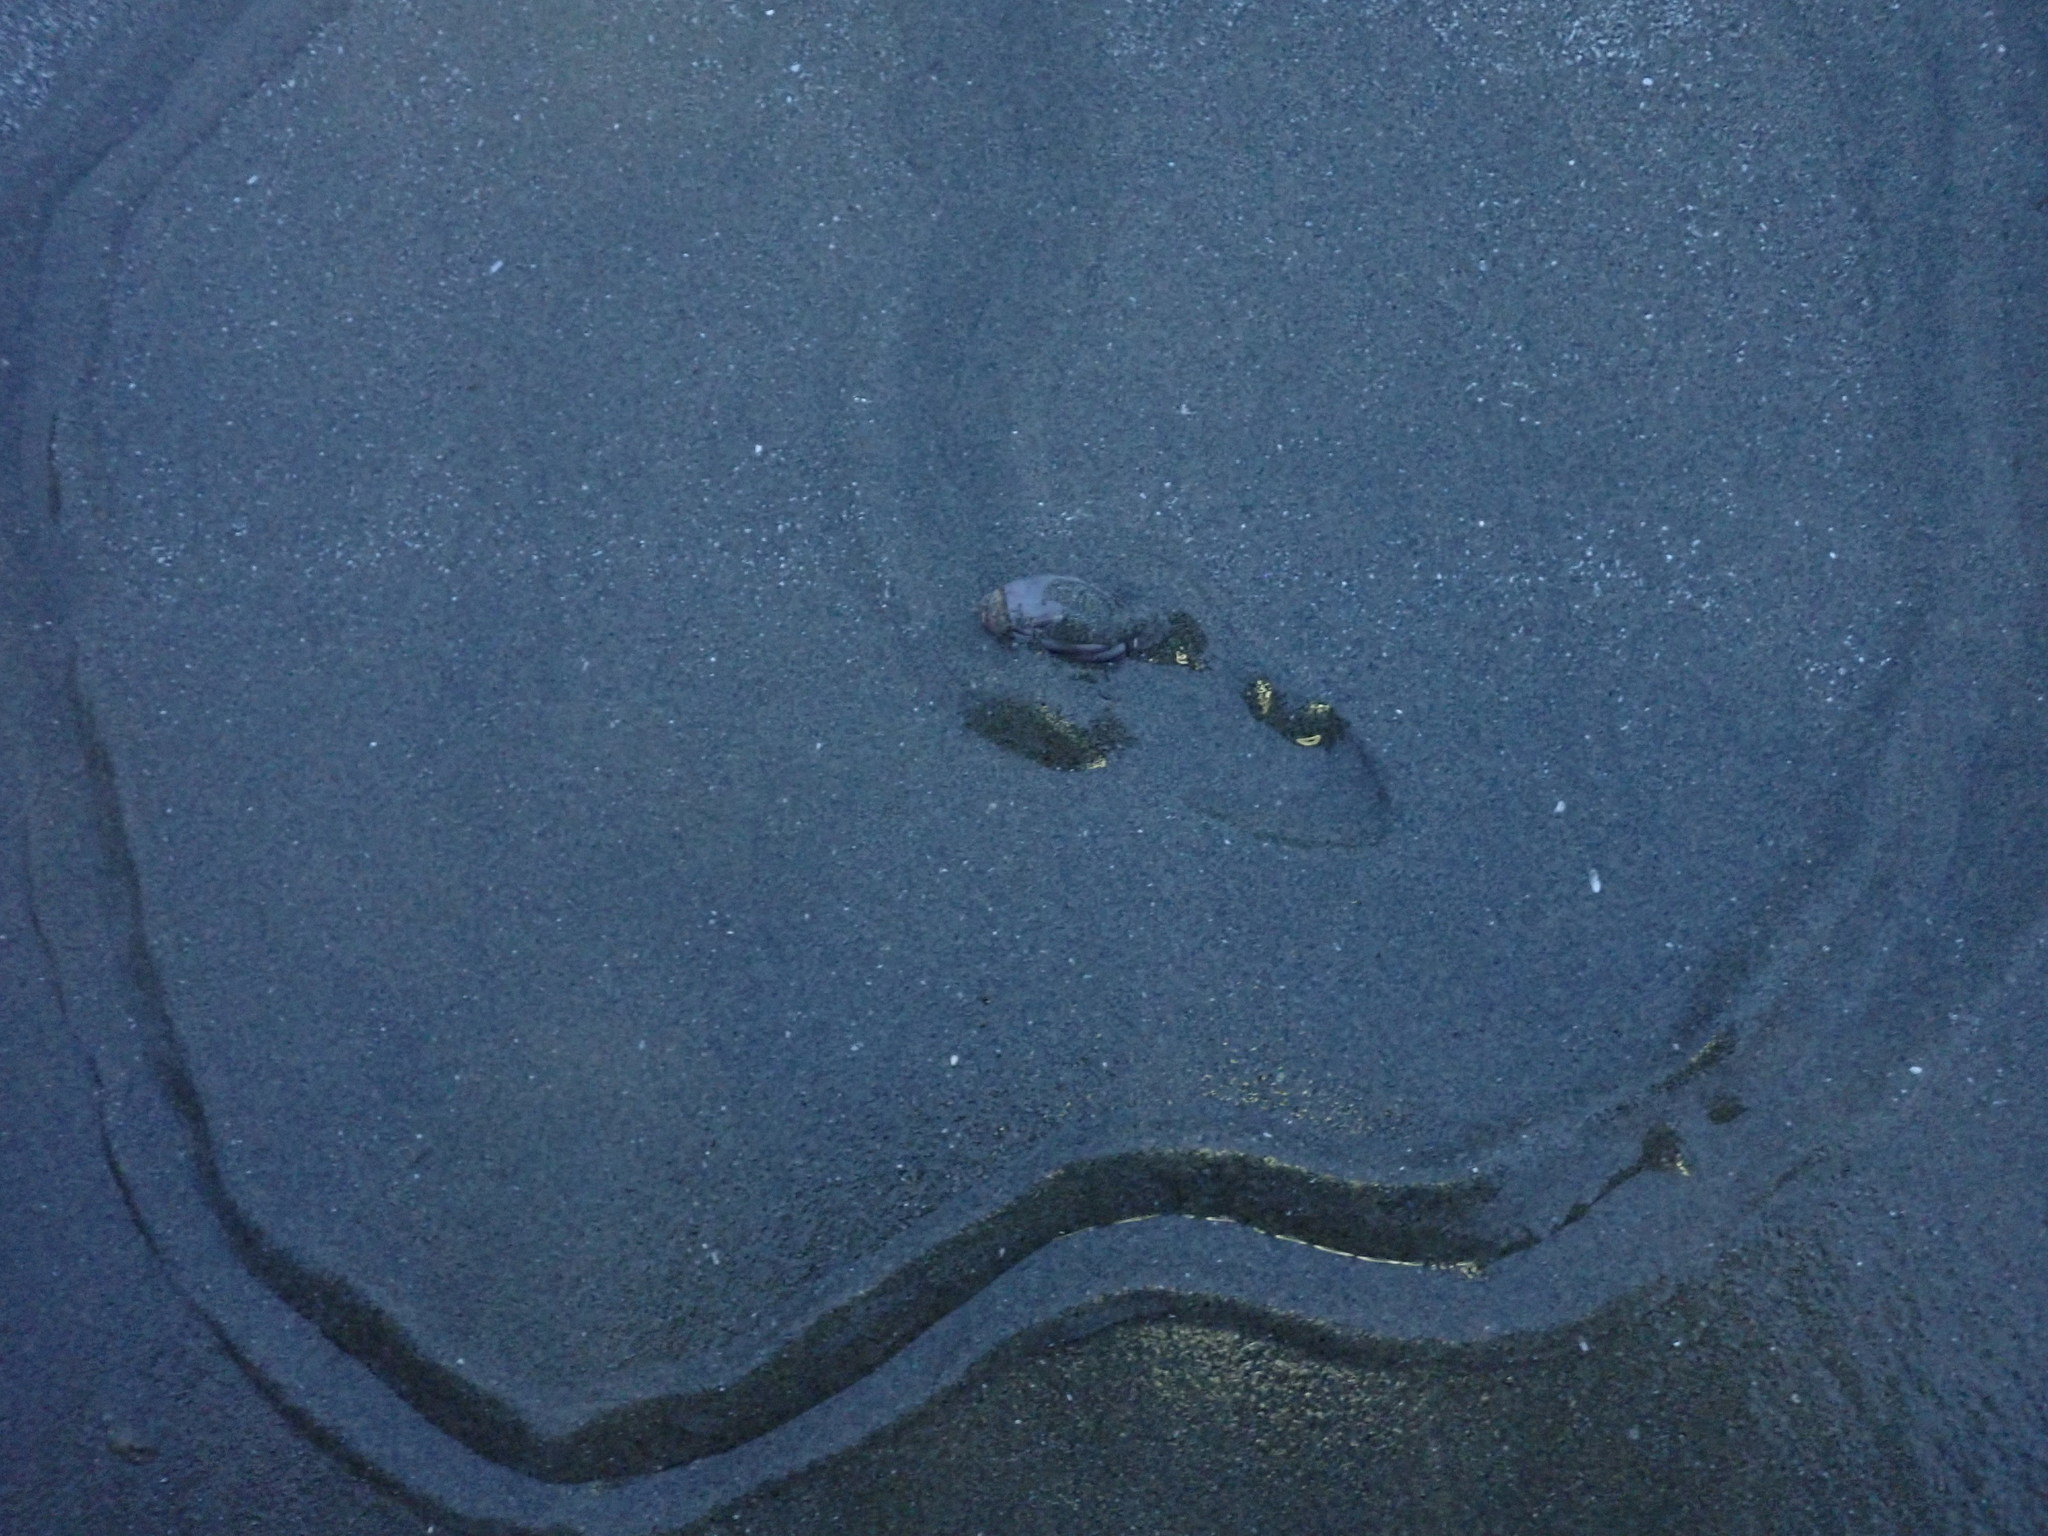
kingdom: Animalia
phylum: Mollusca
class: Gastropoda
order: Neogastropoda
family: Olividae
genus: Callianax
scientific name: Callianax biplicata
